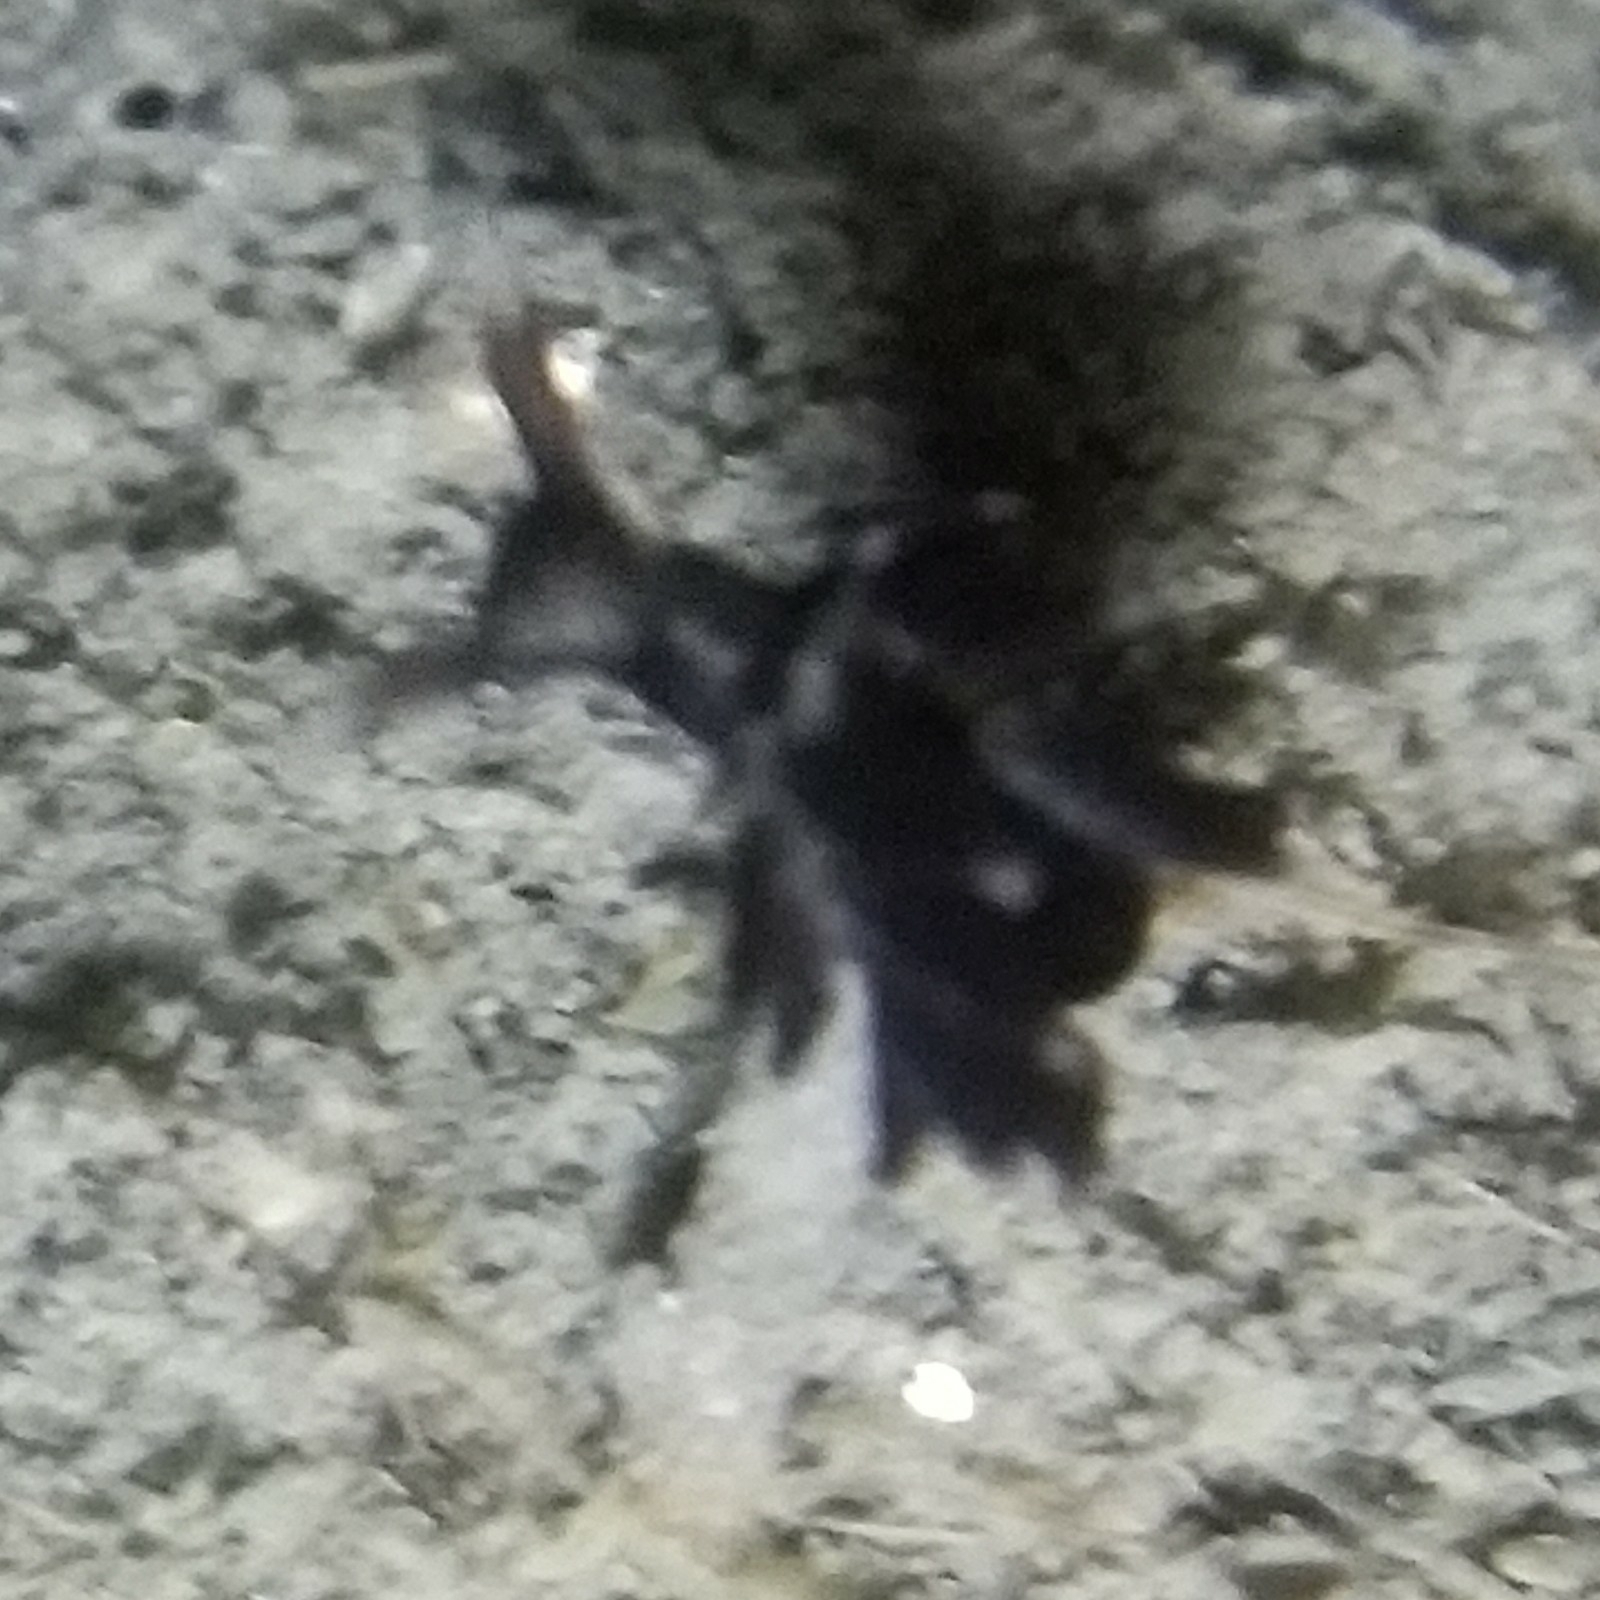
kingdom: Animalia
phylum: Mollusca
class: Gastropoda
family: Hermaeidae
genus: Aplysiopsis
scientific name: Aplysiopsis enteromorphae
